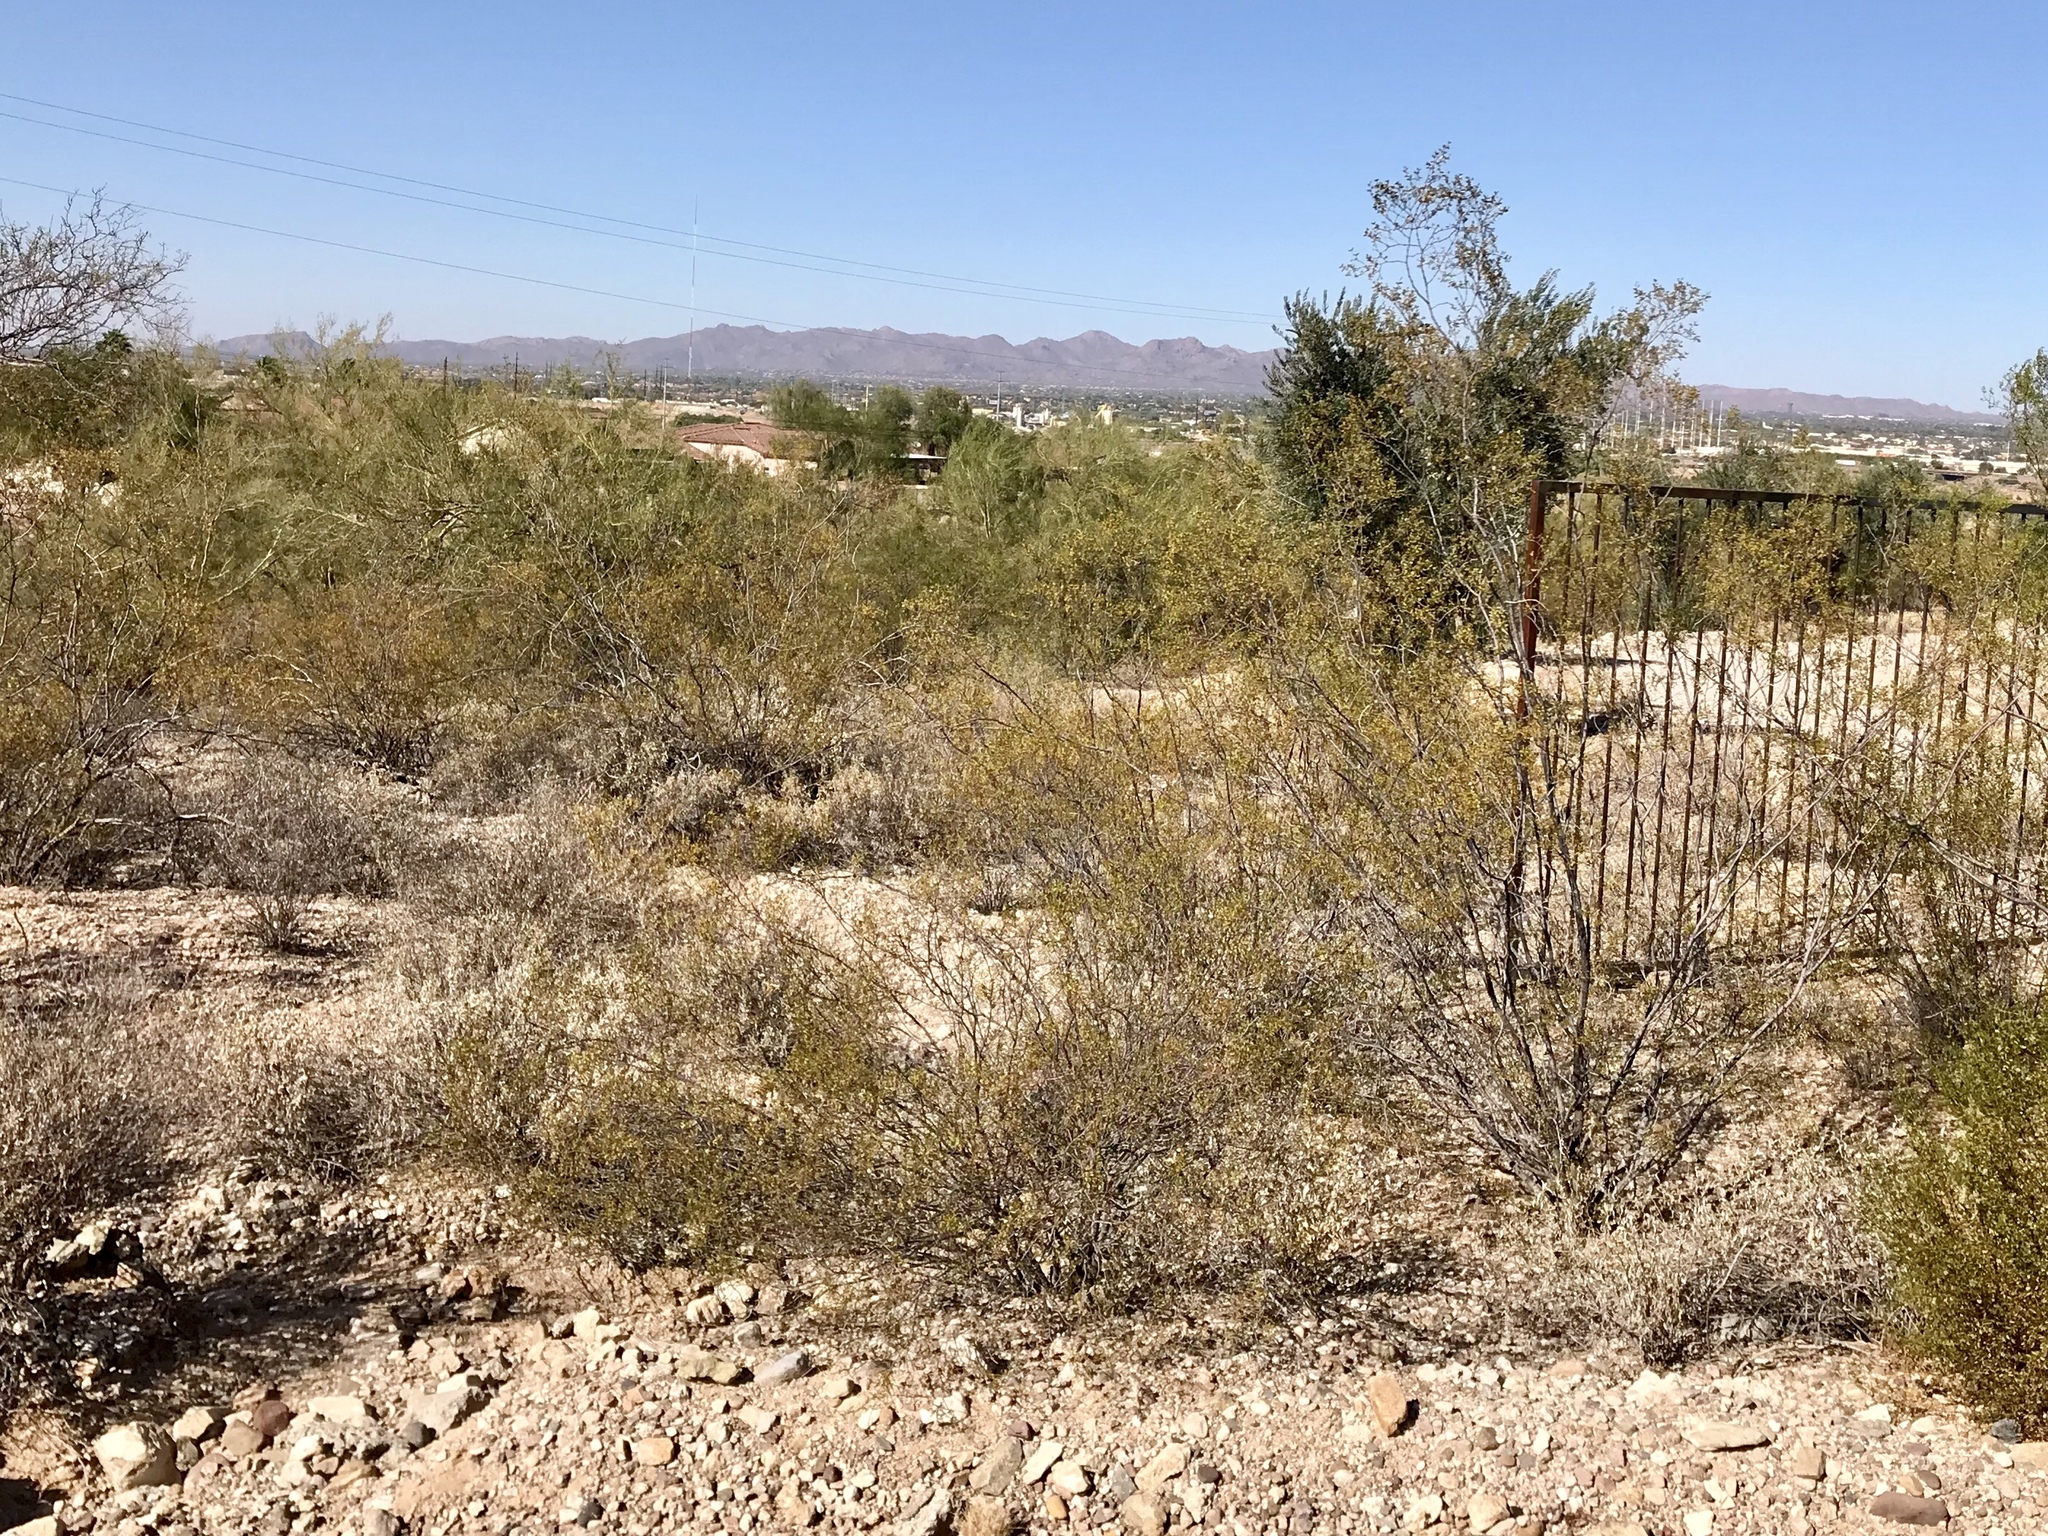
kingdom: Plantae
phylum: Tracheophyta
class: Magnoliopsida
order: Zygophyllales
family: Zygophyllaceae
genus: Larrea
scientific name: Larrea tridentata
